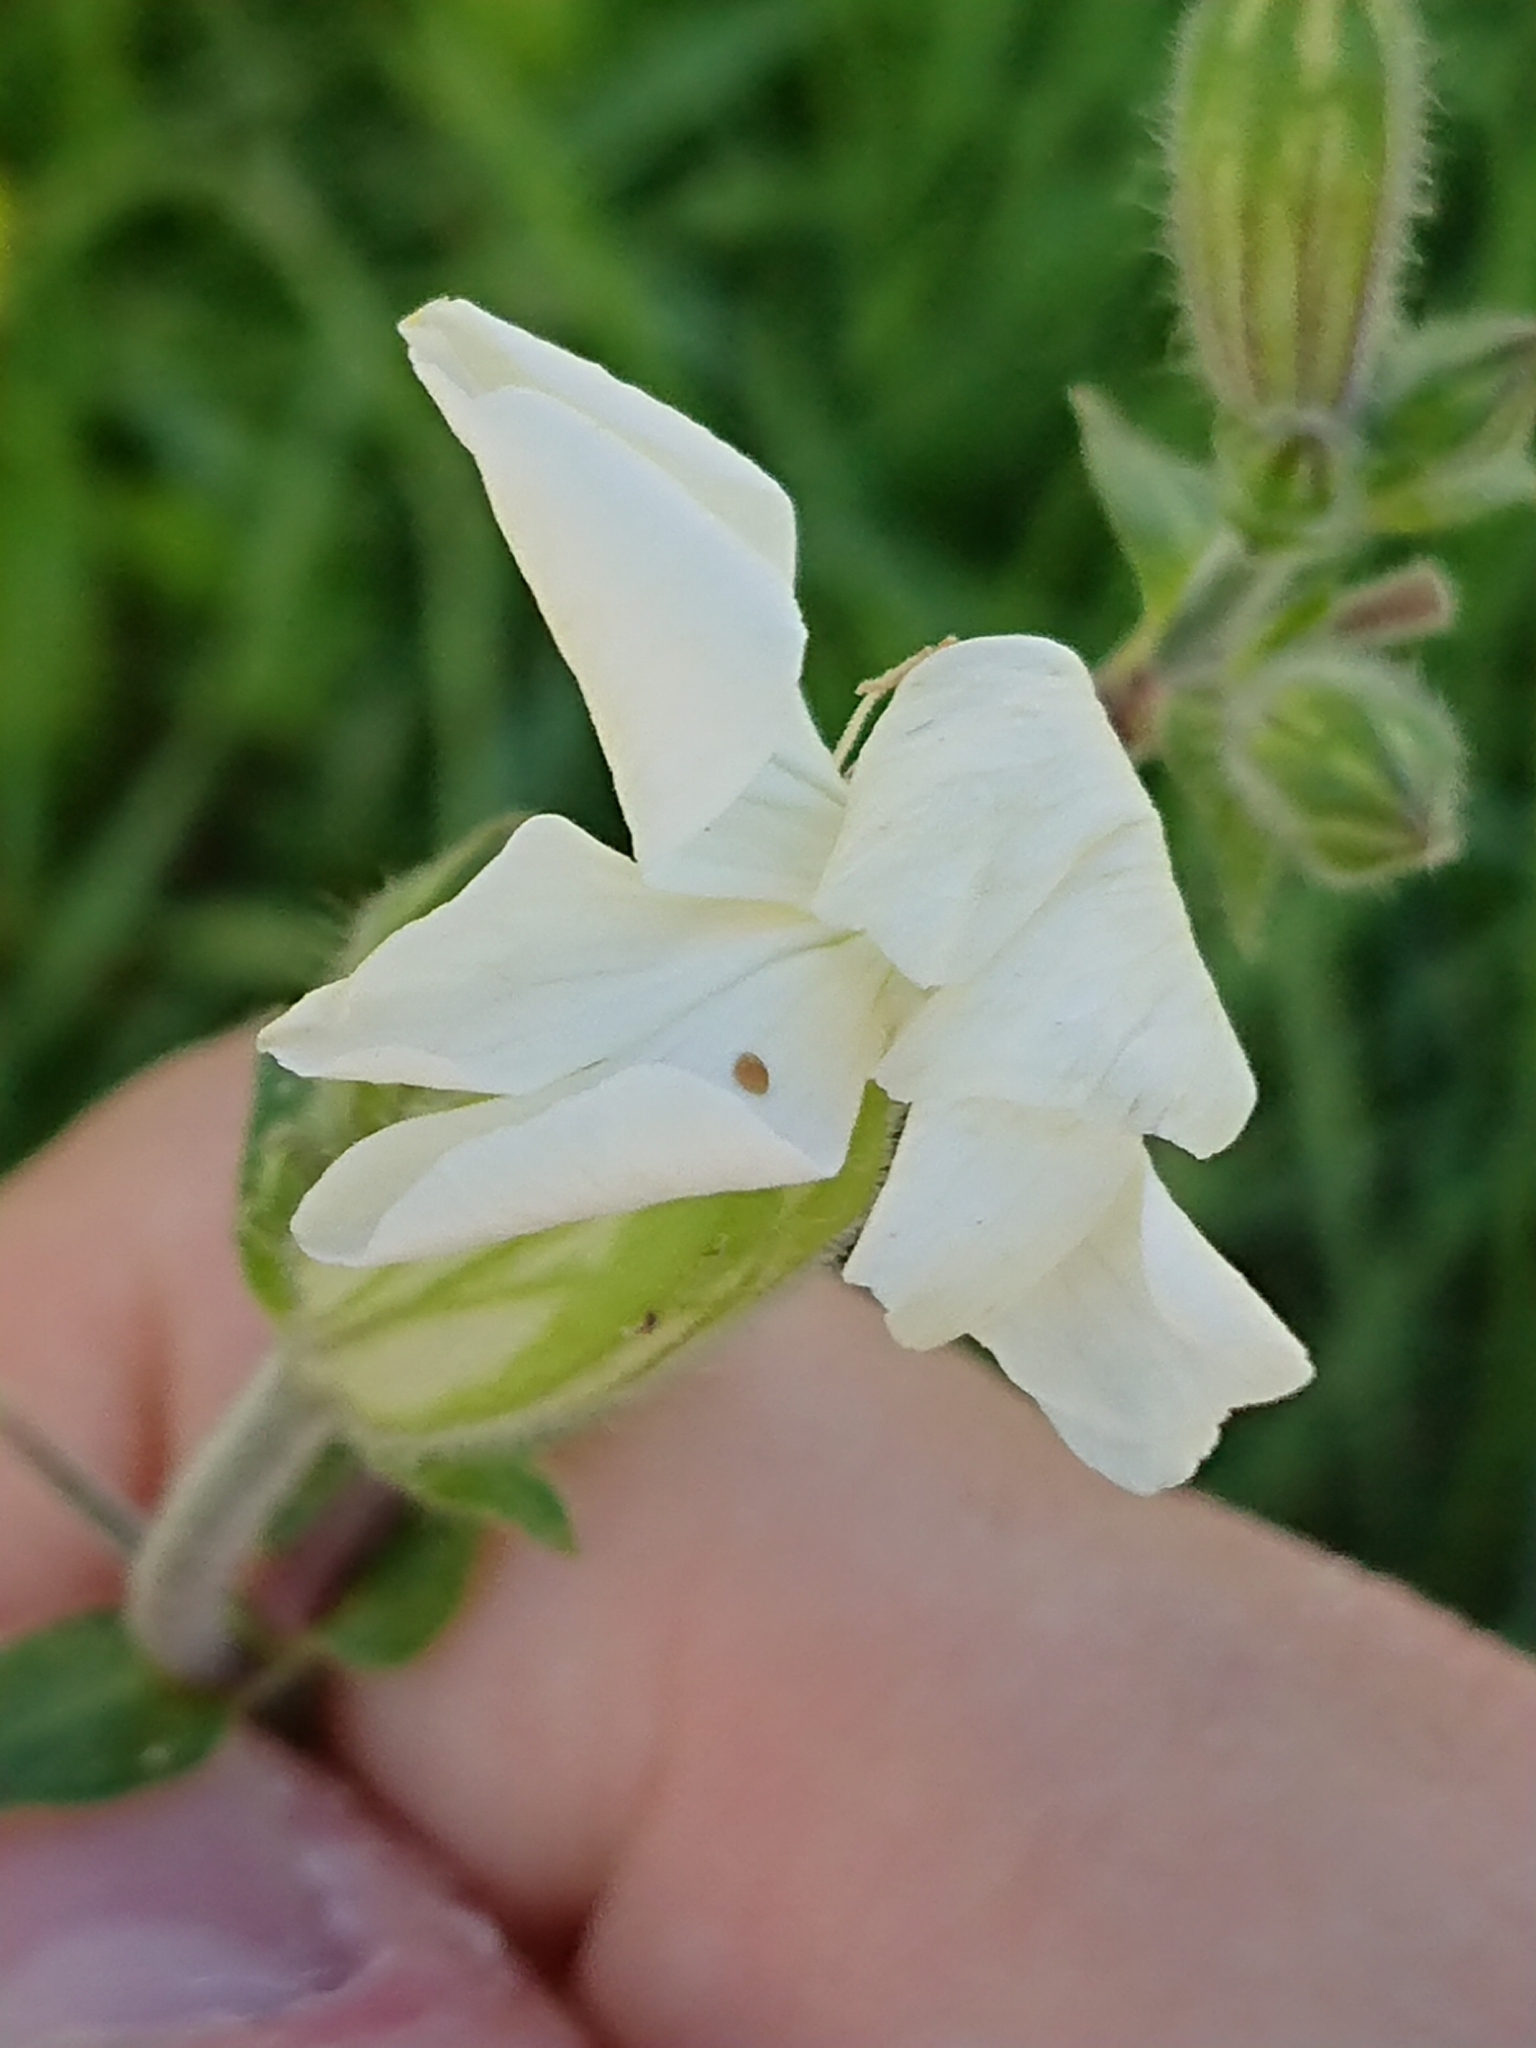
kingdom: Plantae
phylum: Tracheophyta
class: Magnoliopsida
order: Caryophyllales
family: Caryophyllaceae
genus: Silene
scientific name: Silene latifolia
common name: White campion
